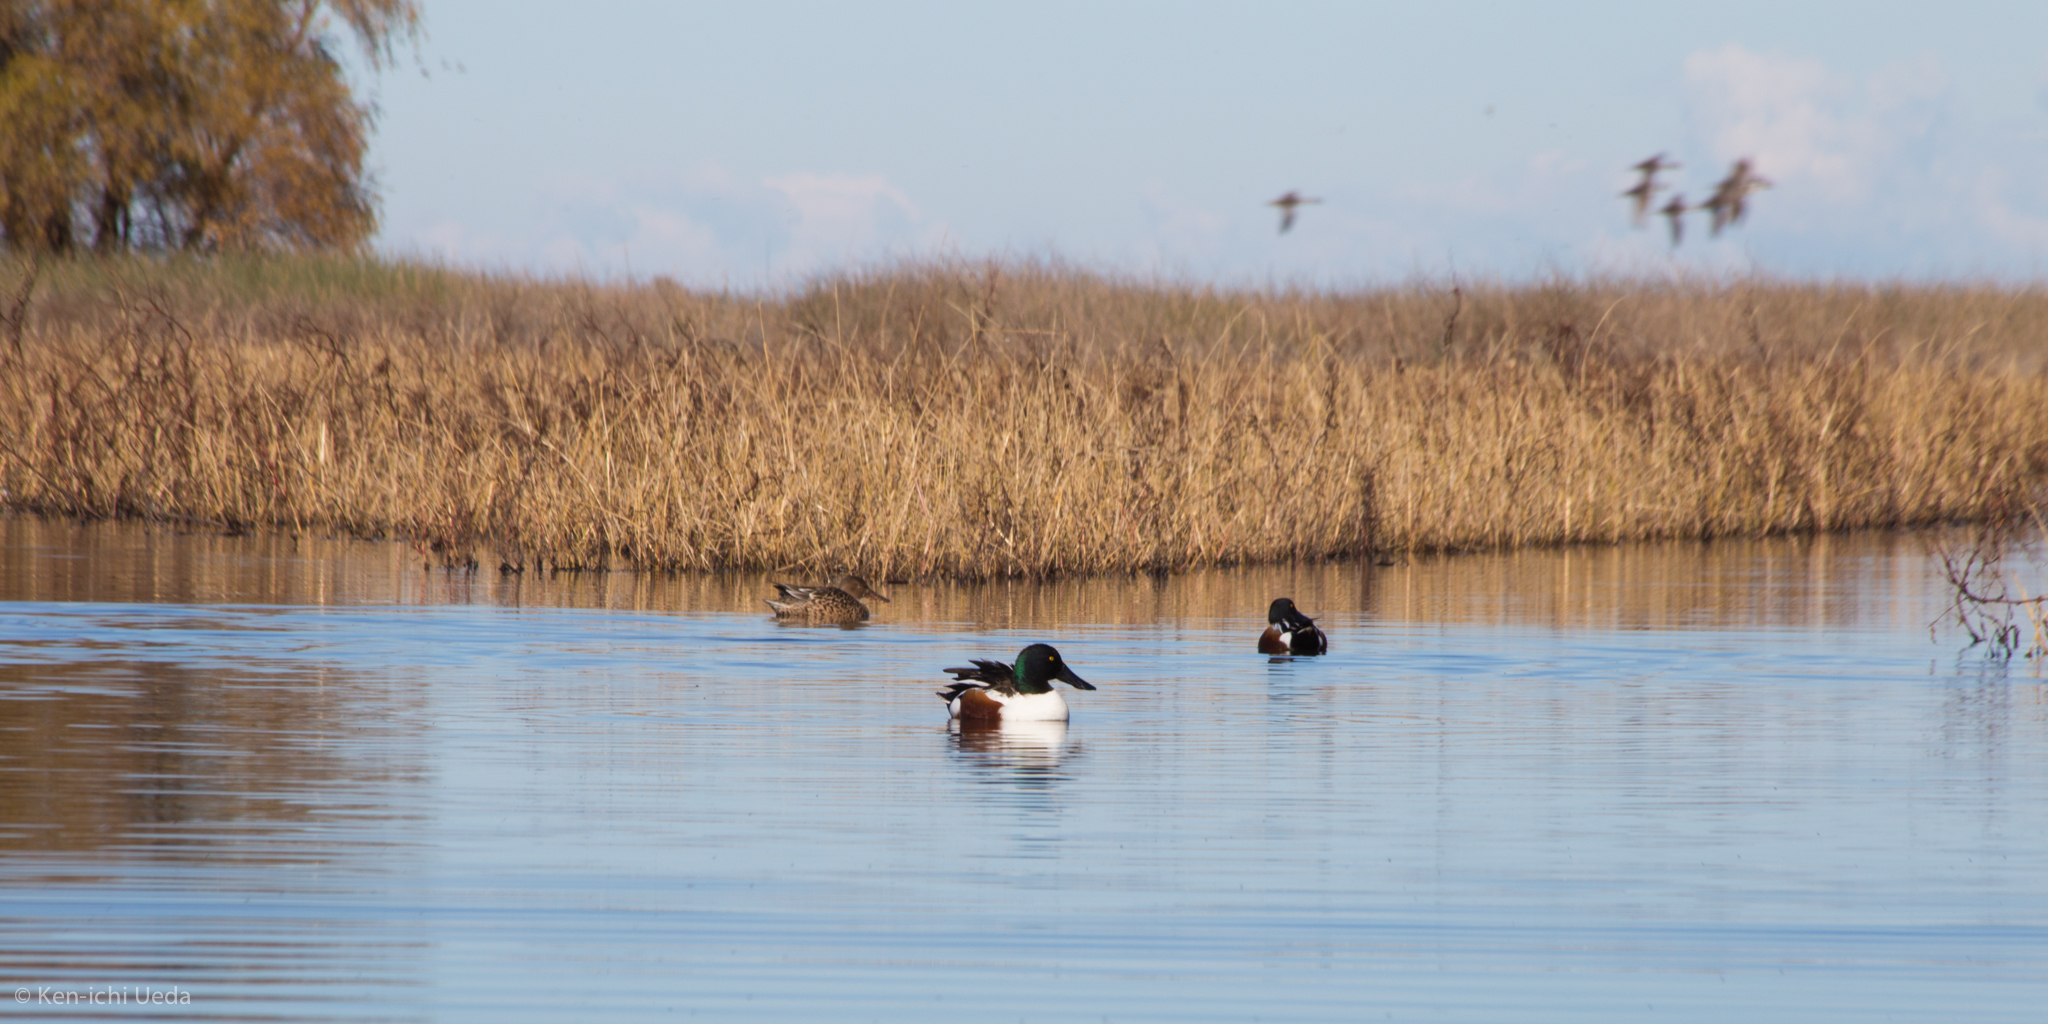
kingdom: Animalia
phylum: Chordata
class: Aves
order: Anseriformes
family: Anatidae
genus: Spatula
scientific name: Spatula clypeata
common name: Northern shoveler
